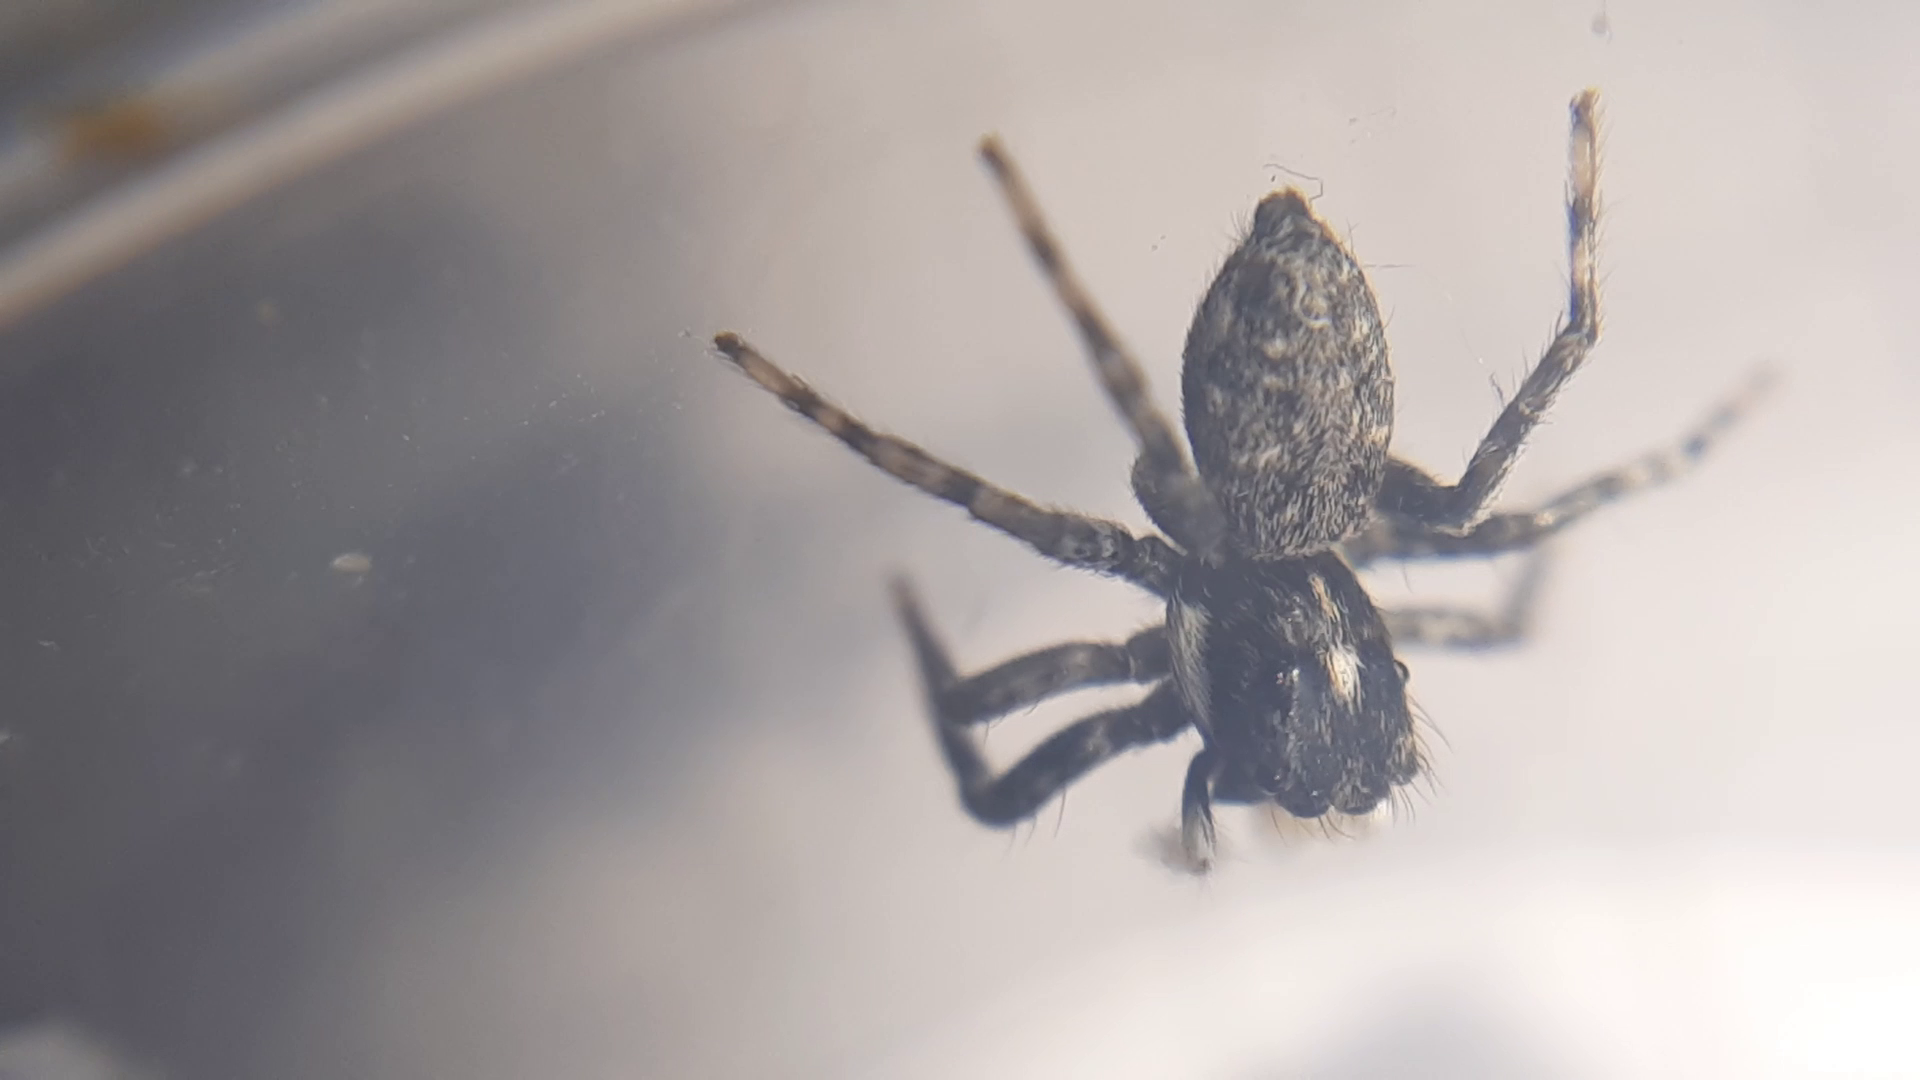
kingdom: Animalia
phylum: Arthropoda
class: Arachnida
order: Araneae
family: Salticidae
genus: Menemerus
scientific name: Menemerus semilimbatus
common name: Jumping spider
